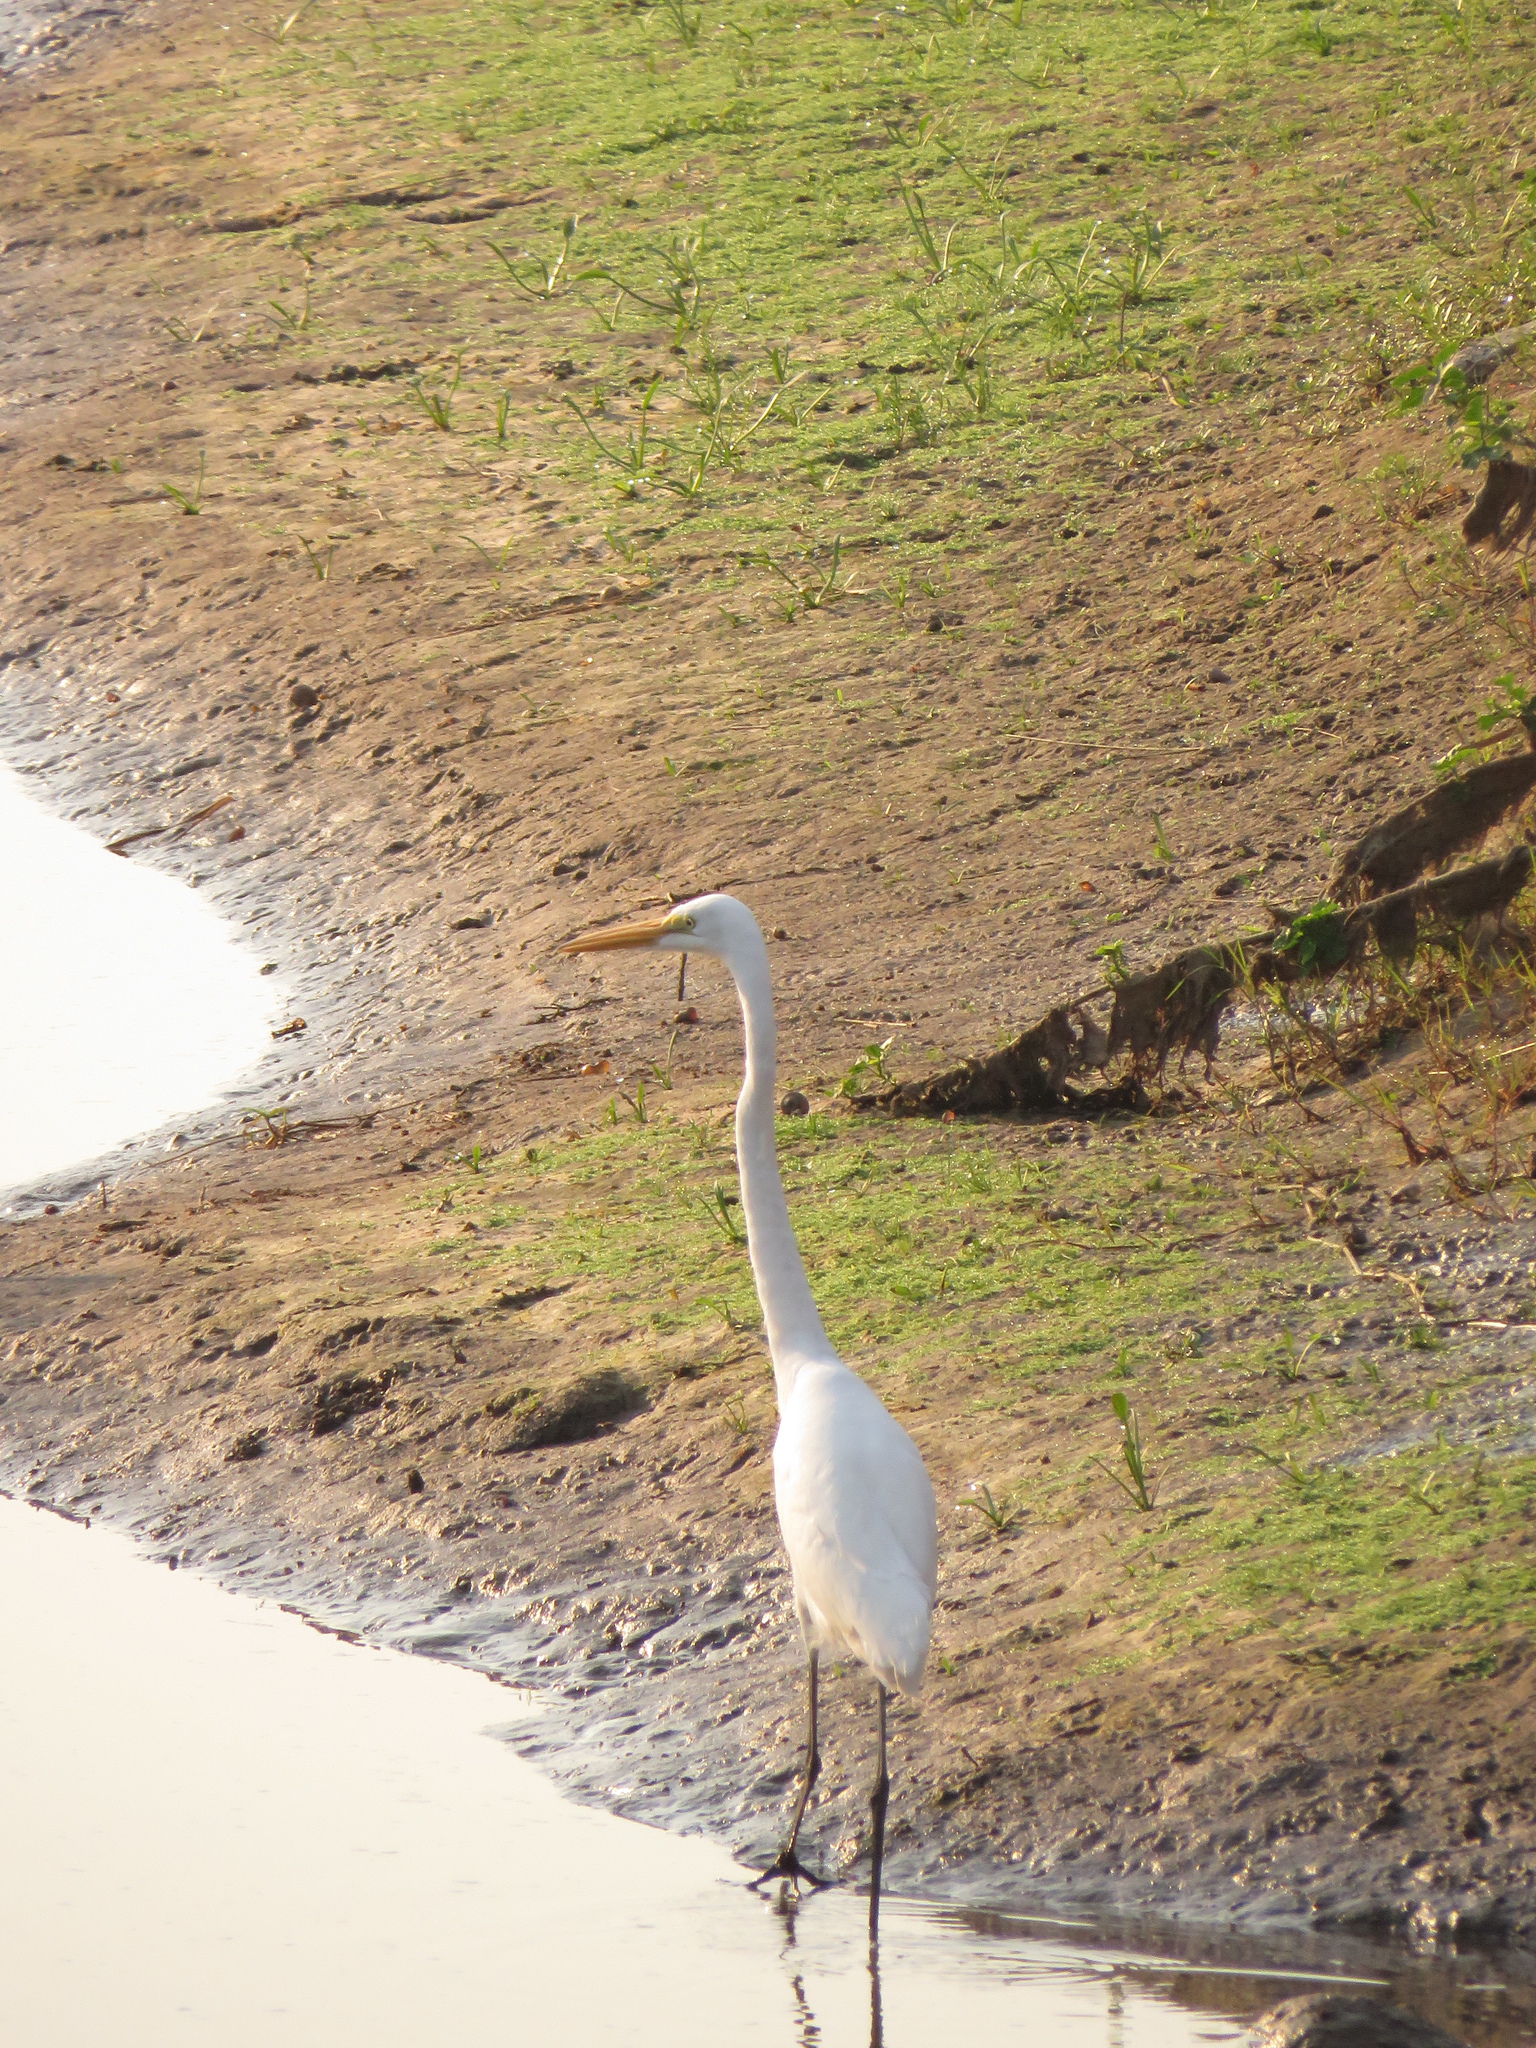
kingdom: Animalia
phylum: Chordata
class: Aves
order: Pelecaniformes
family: Ardeidae
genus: Ardea
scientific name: Ardea alba
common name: Great egret
